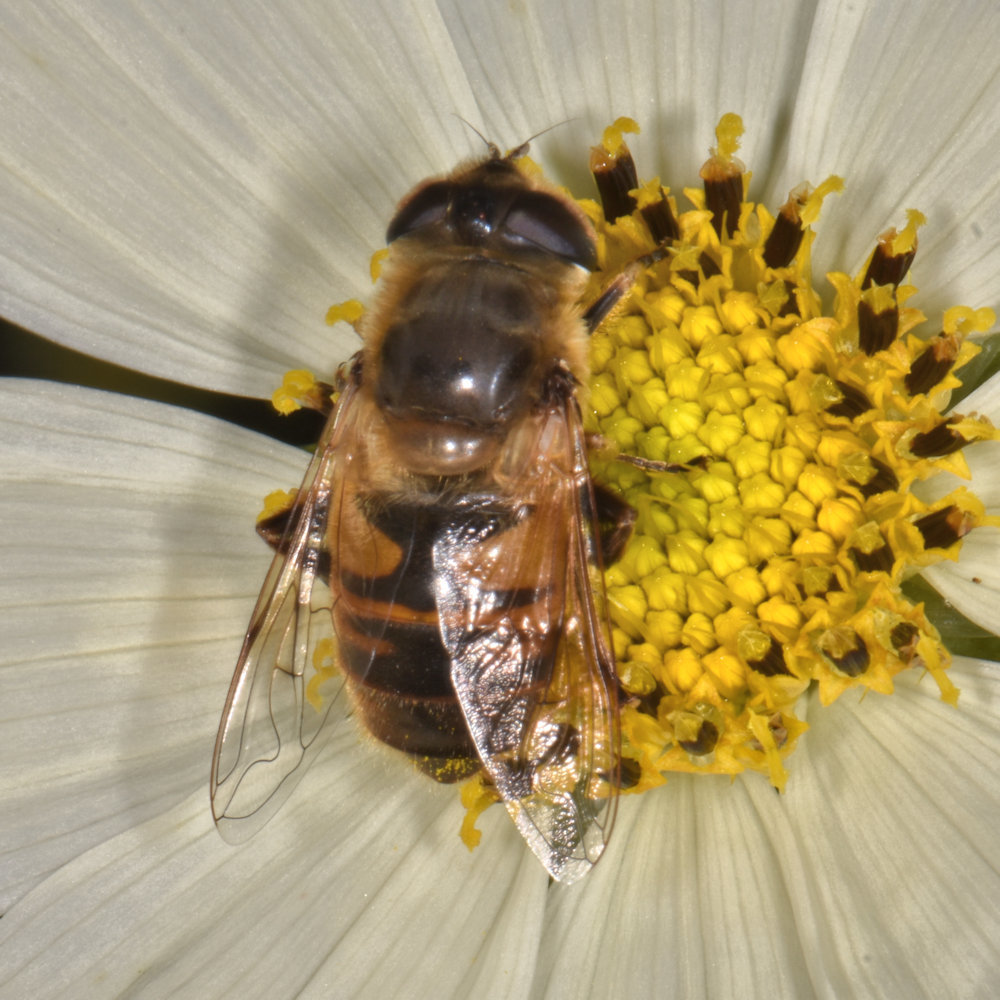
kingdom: Animalia
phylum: Arthropoda
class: Insecta
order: Diptera
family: Syrphidae
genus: Eristalis
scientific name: Eristalis tenax
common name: Drone fly
